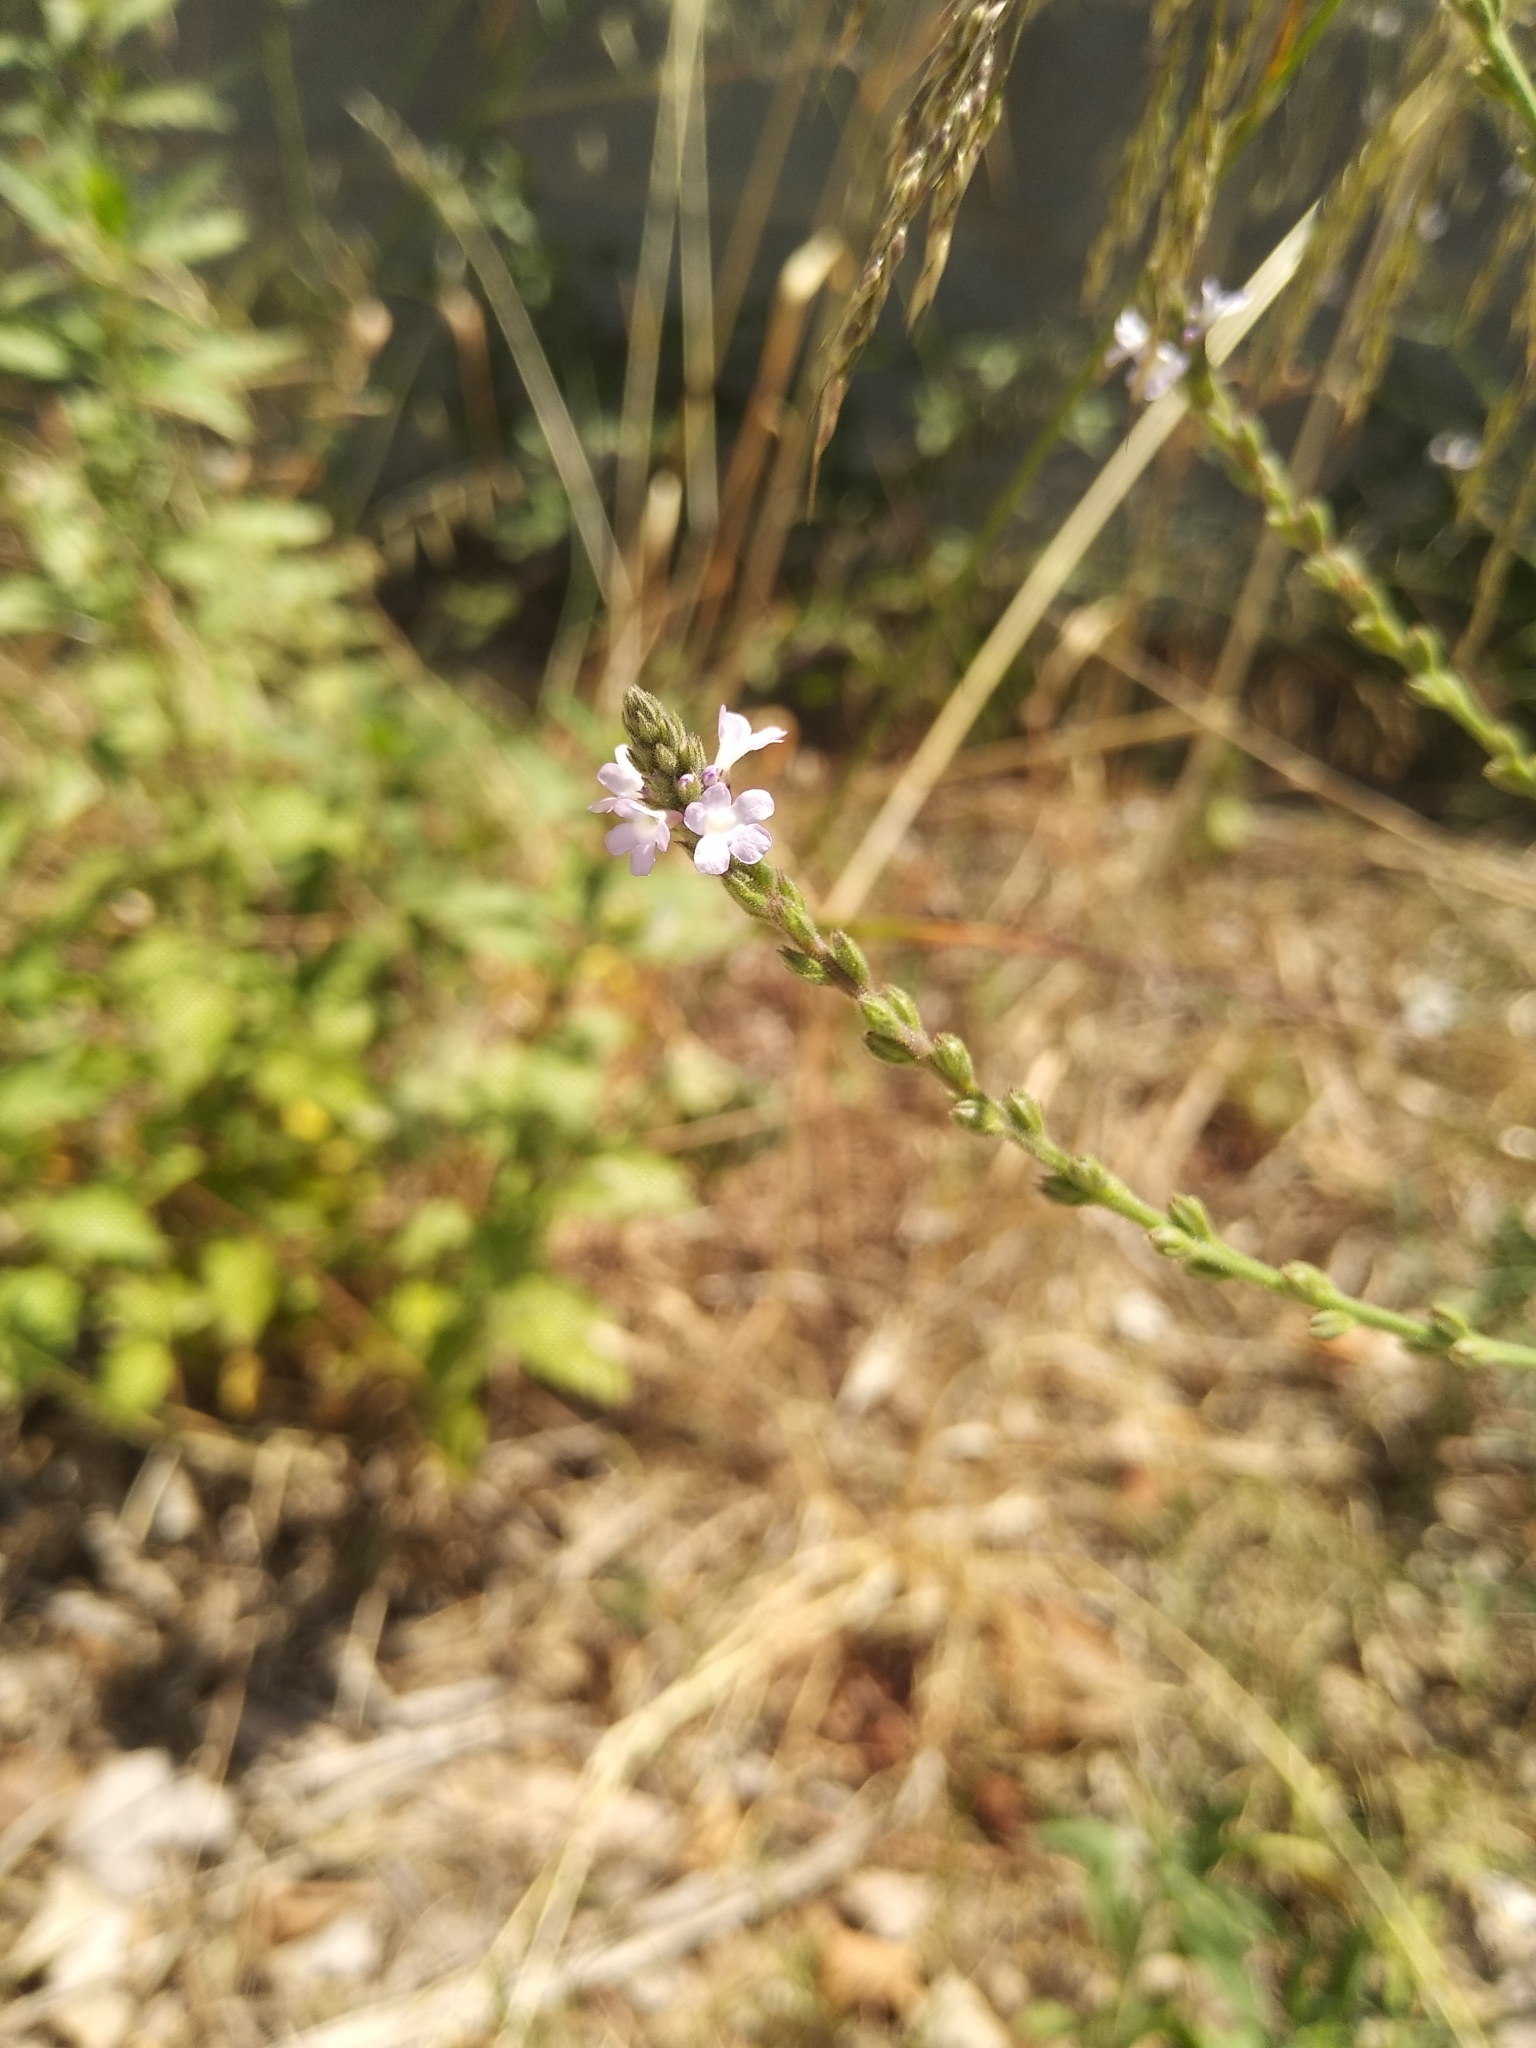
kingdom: Plantae
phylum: Tracheophyta
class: Magnoliopsida
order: Lamiales
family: Verbenaceae
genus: Verbena
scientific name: Verbena officinalis
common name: Vervain
